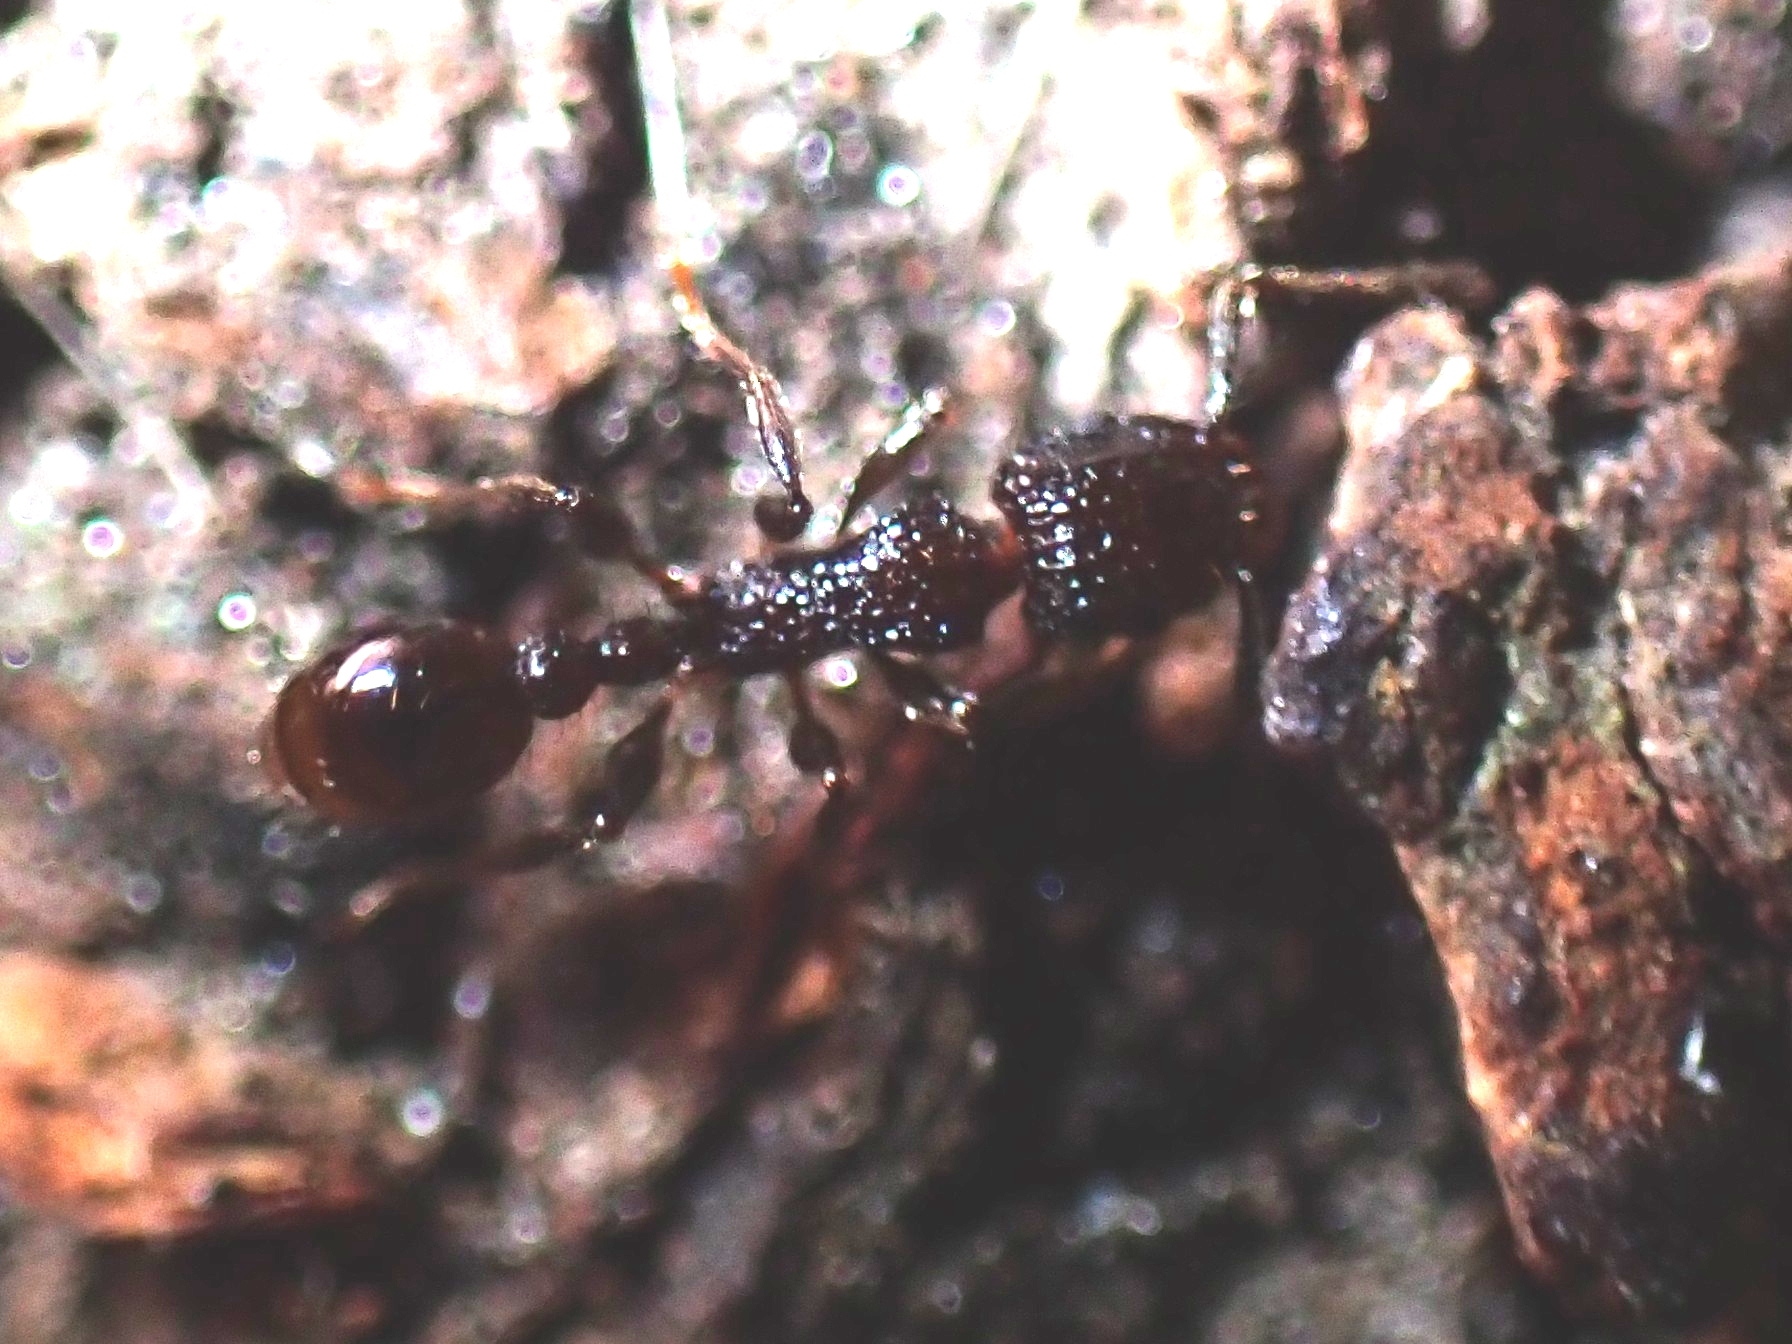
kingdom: Animalia
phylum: Arthropoda
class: Insecta
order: Hymenoptera
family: Formicidae
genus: Tetramorium
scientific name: Tetramorium pacificum
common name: Ant
